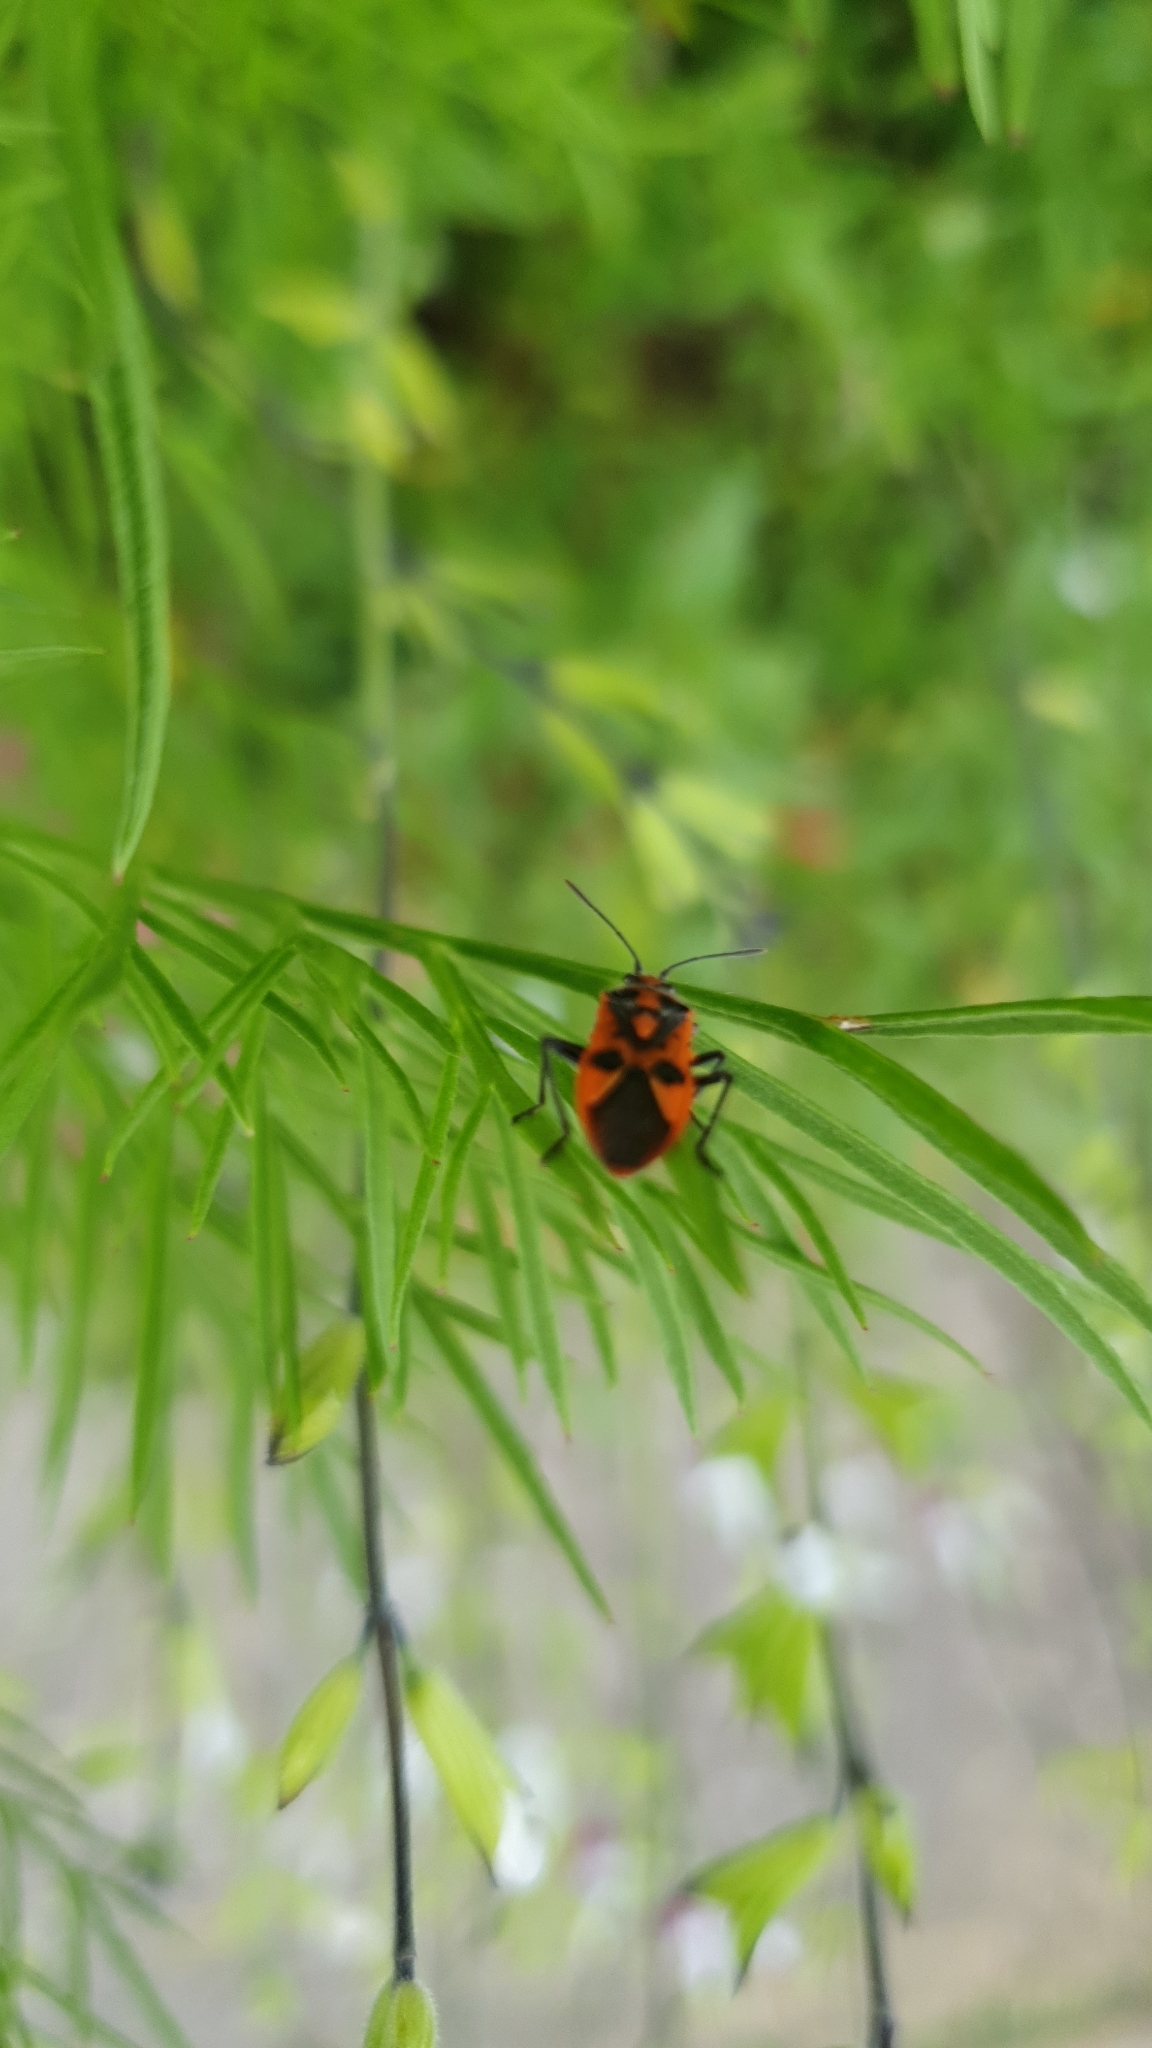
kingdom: Animalia
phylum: Arthropoda
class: Insecta
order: Hemiptera
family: Rhopalidae
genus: Corizus
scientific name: Corizus hyoscyami
